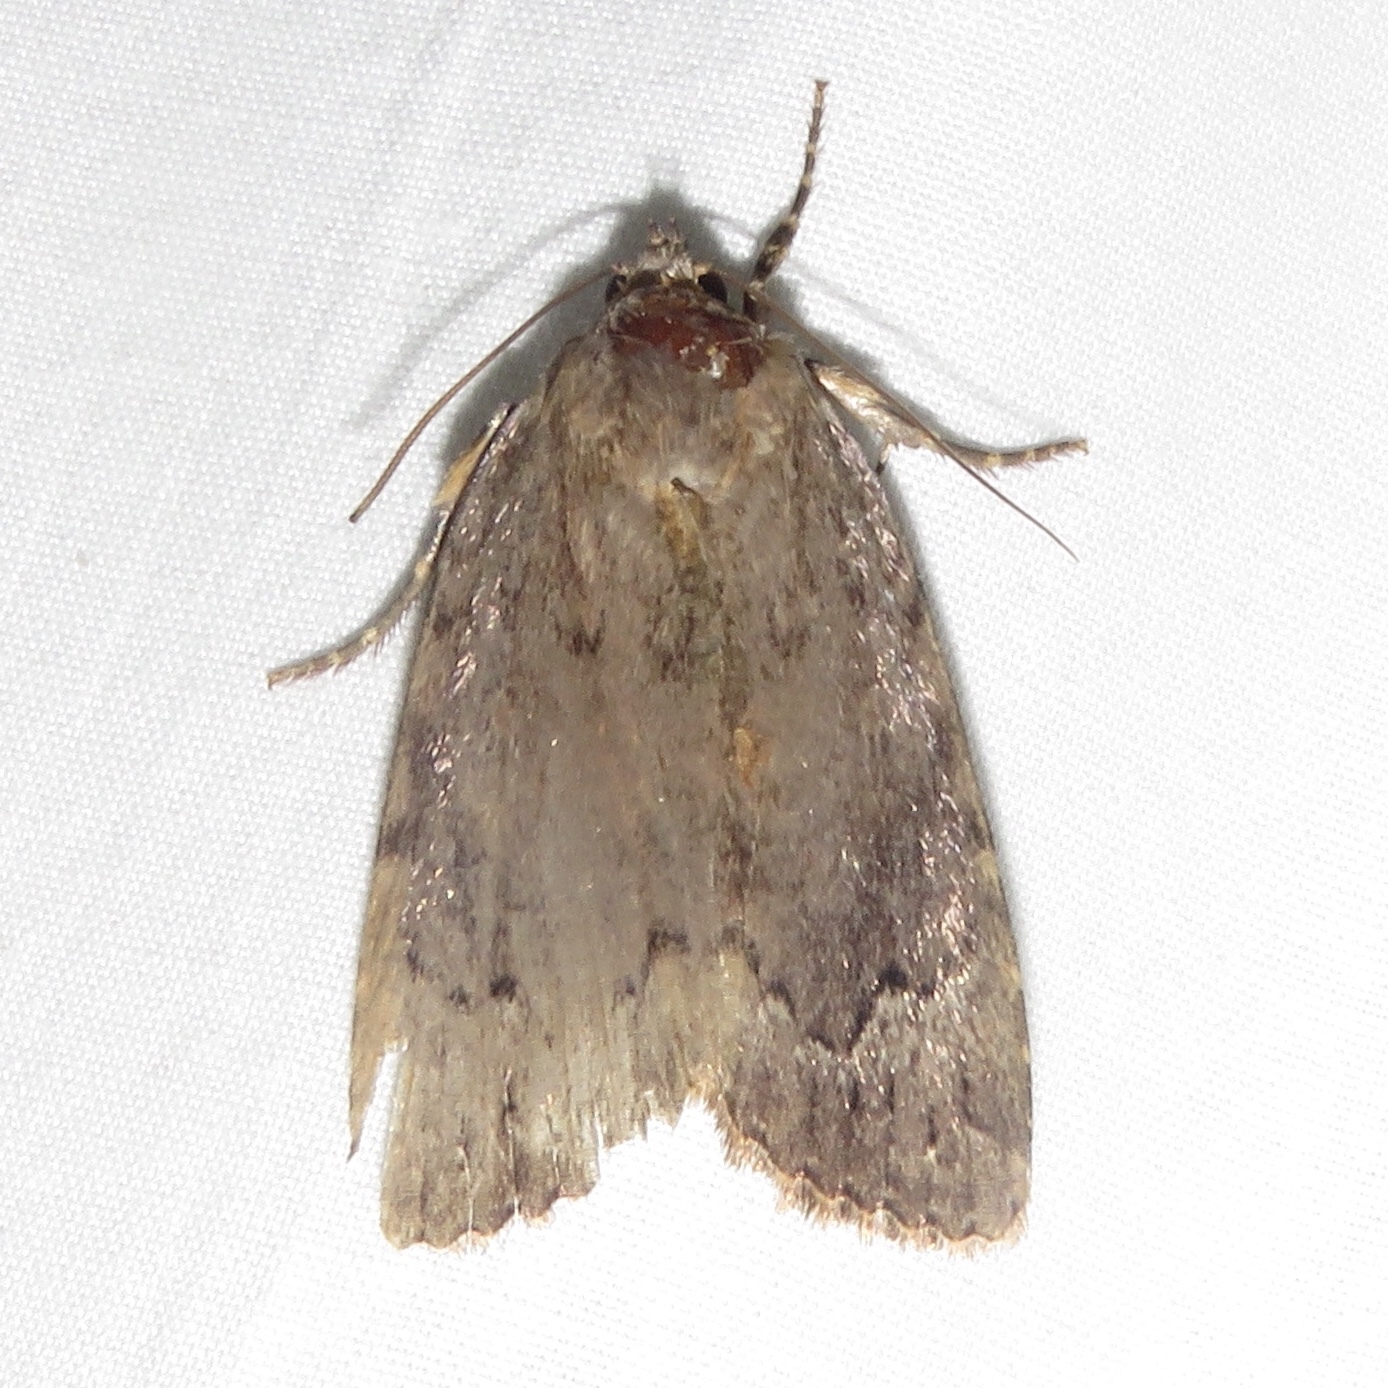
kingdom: Animalia
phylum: Arthropoda
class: Insecta
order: Lepidoptera
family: Noctuidae
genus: Amphipyra
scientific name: Amphipyra pyramidoides
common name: American copper underwing
